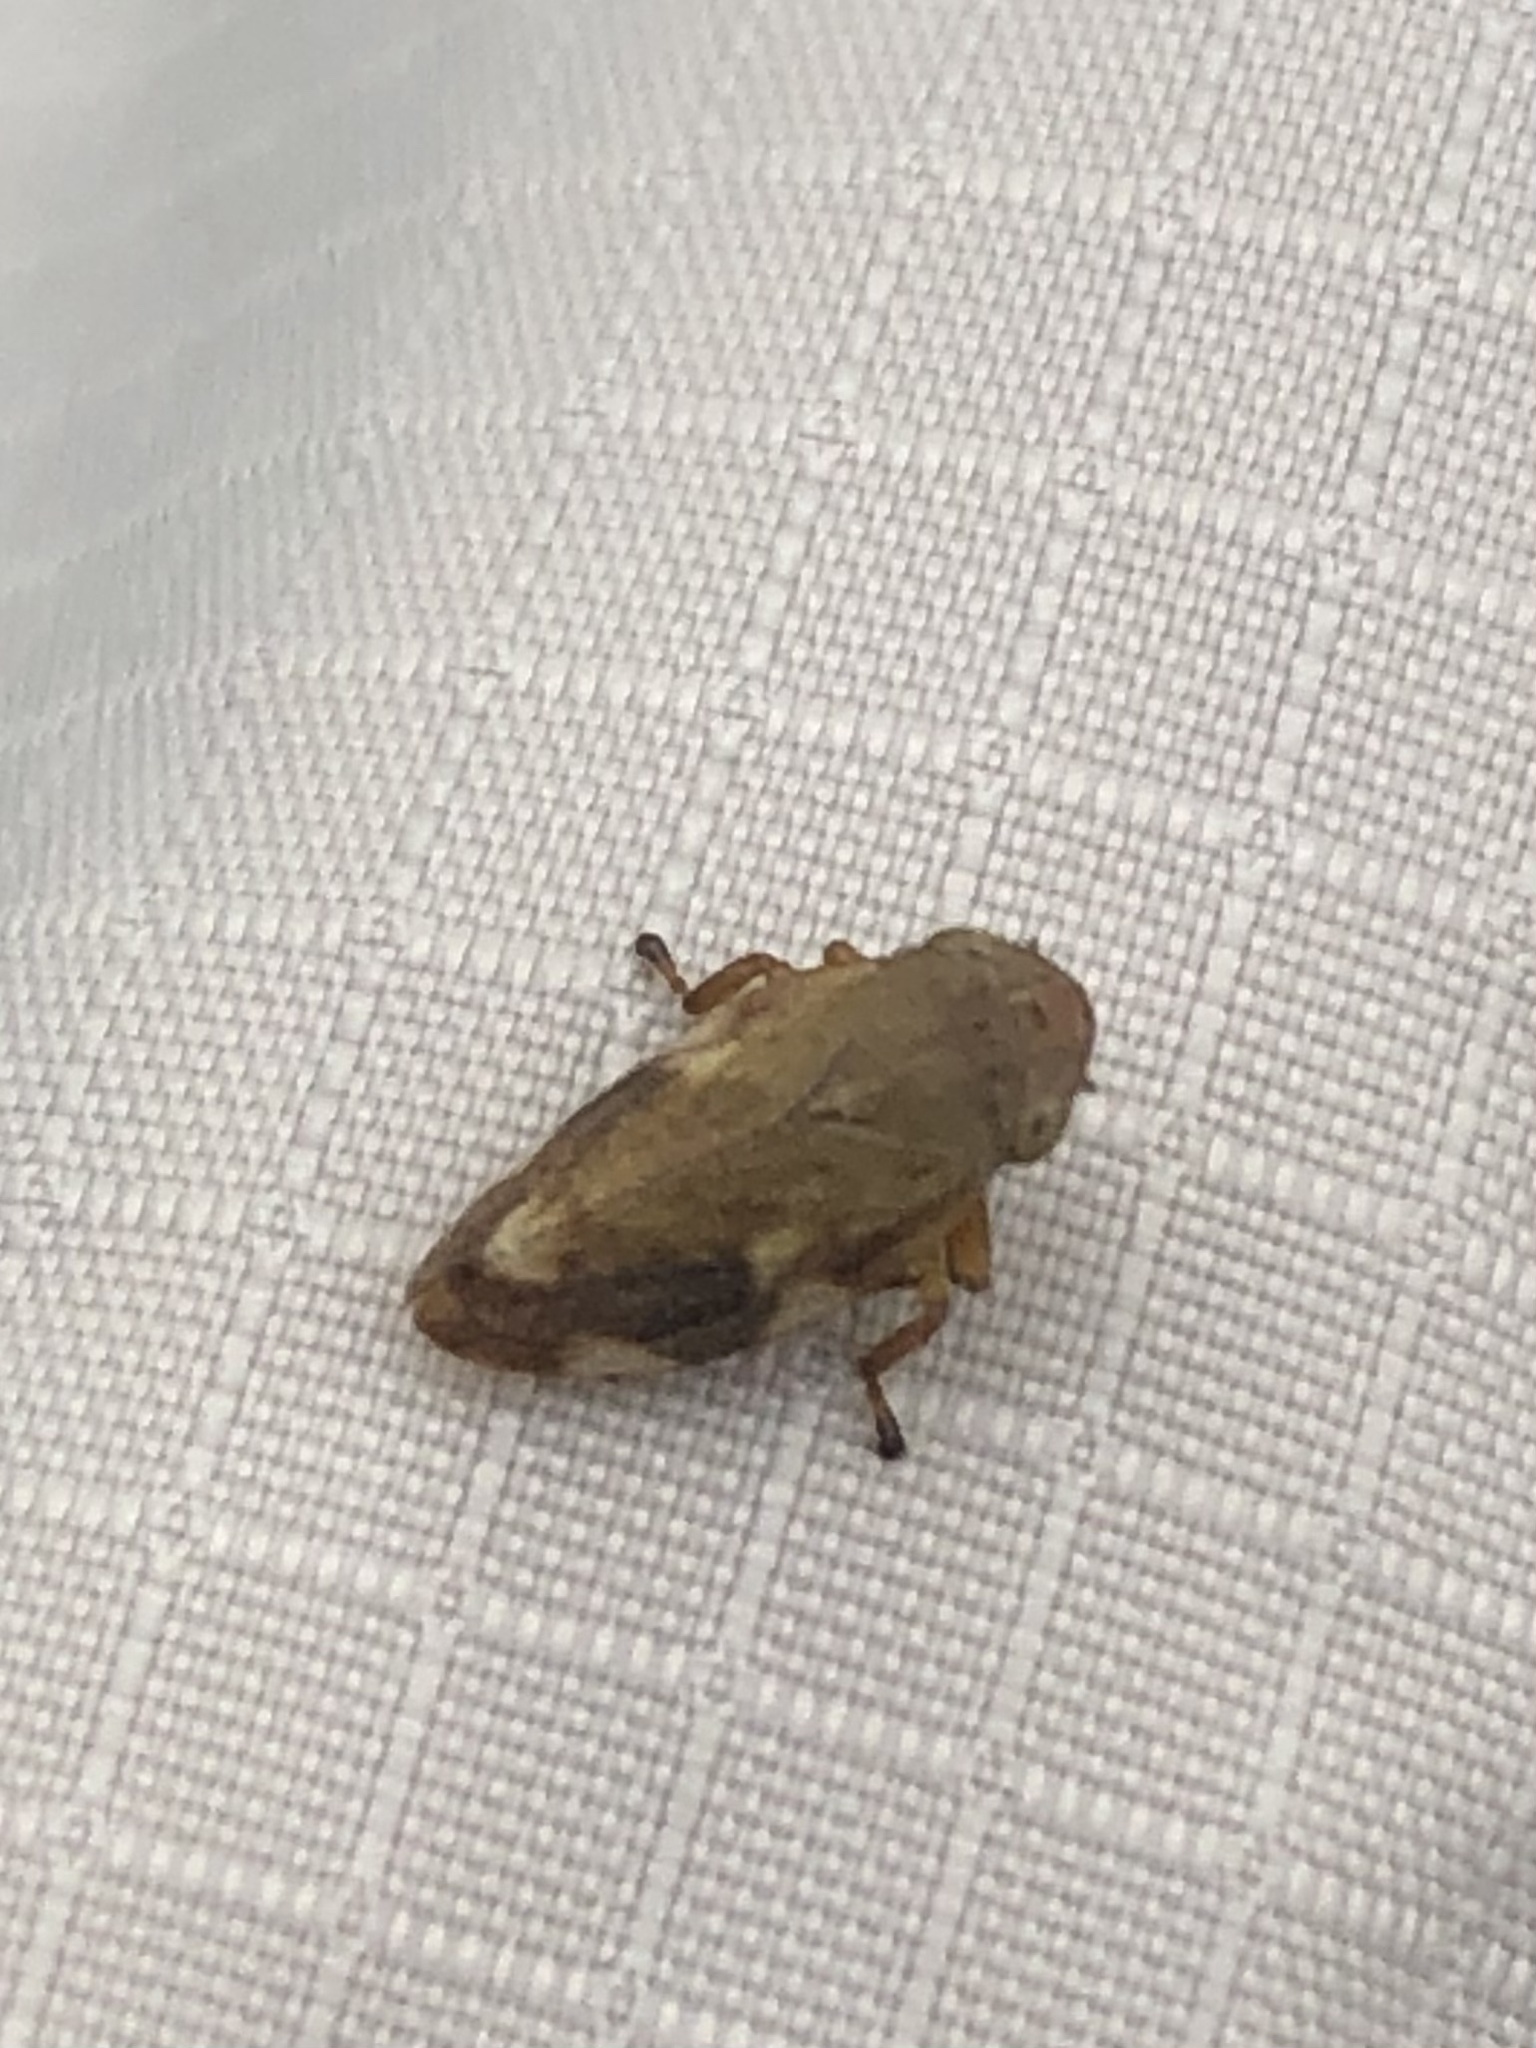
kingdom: Animalia
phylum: Arthropoda
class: Insecta
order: Hemiptera
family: Aphrophoridae
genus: Philaenus
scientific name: Philaenus spumarius
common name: Meadow spittlebug
